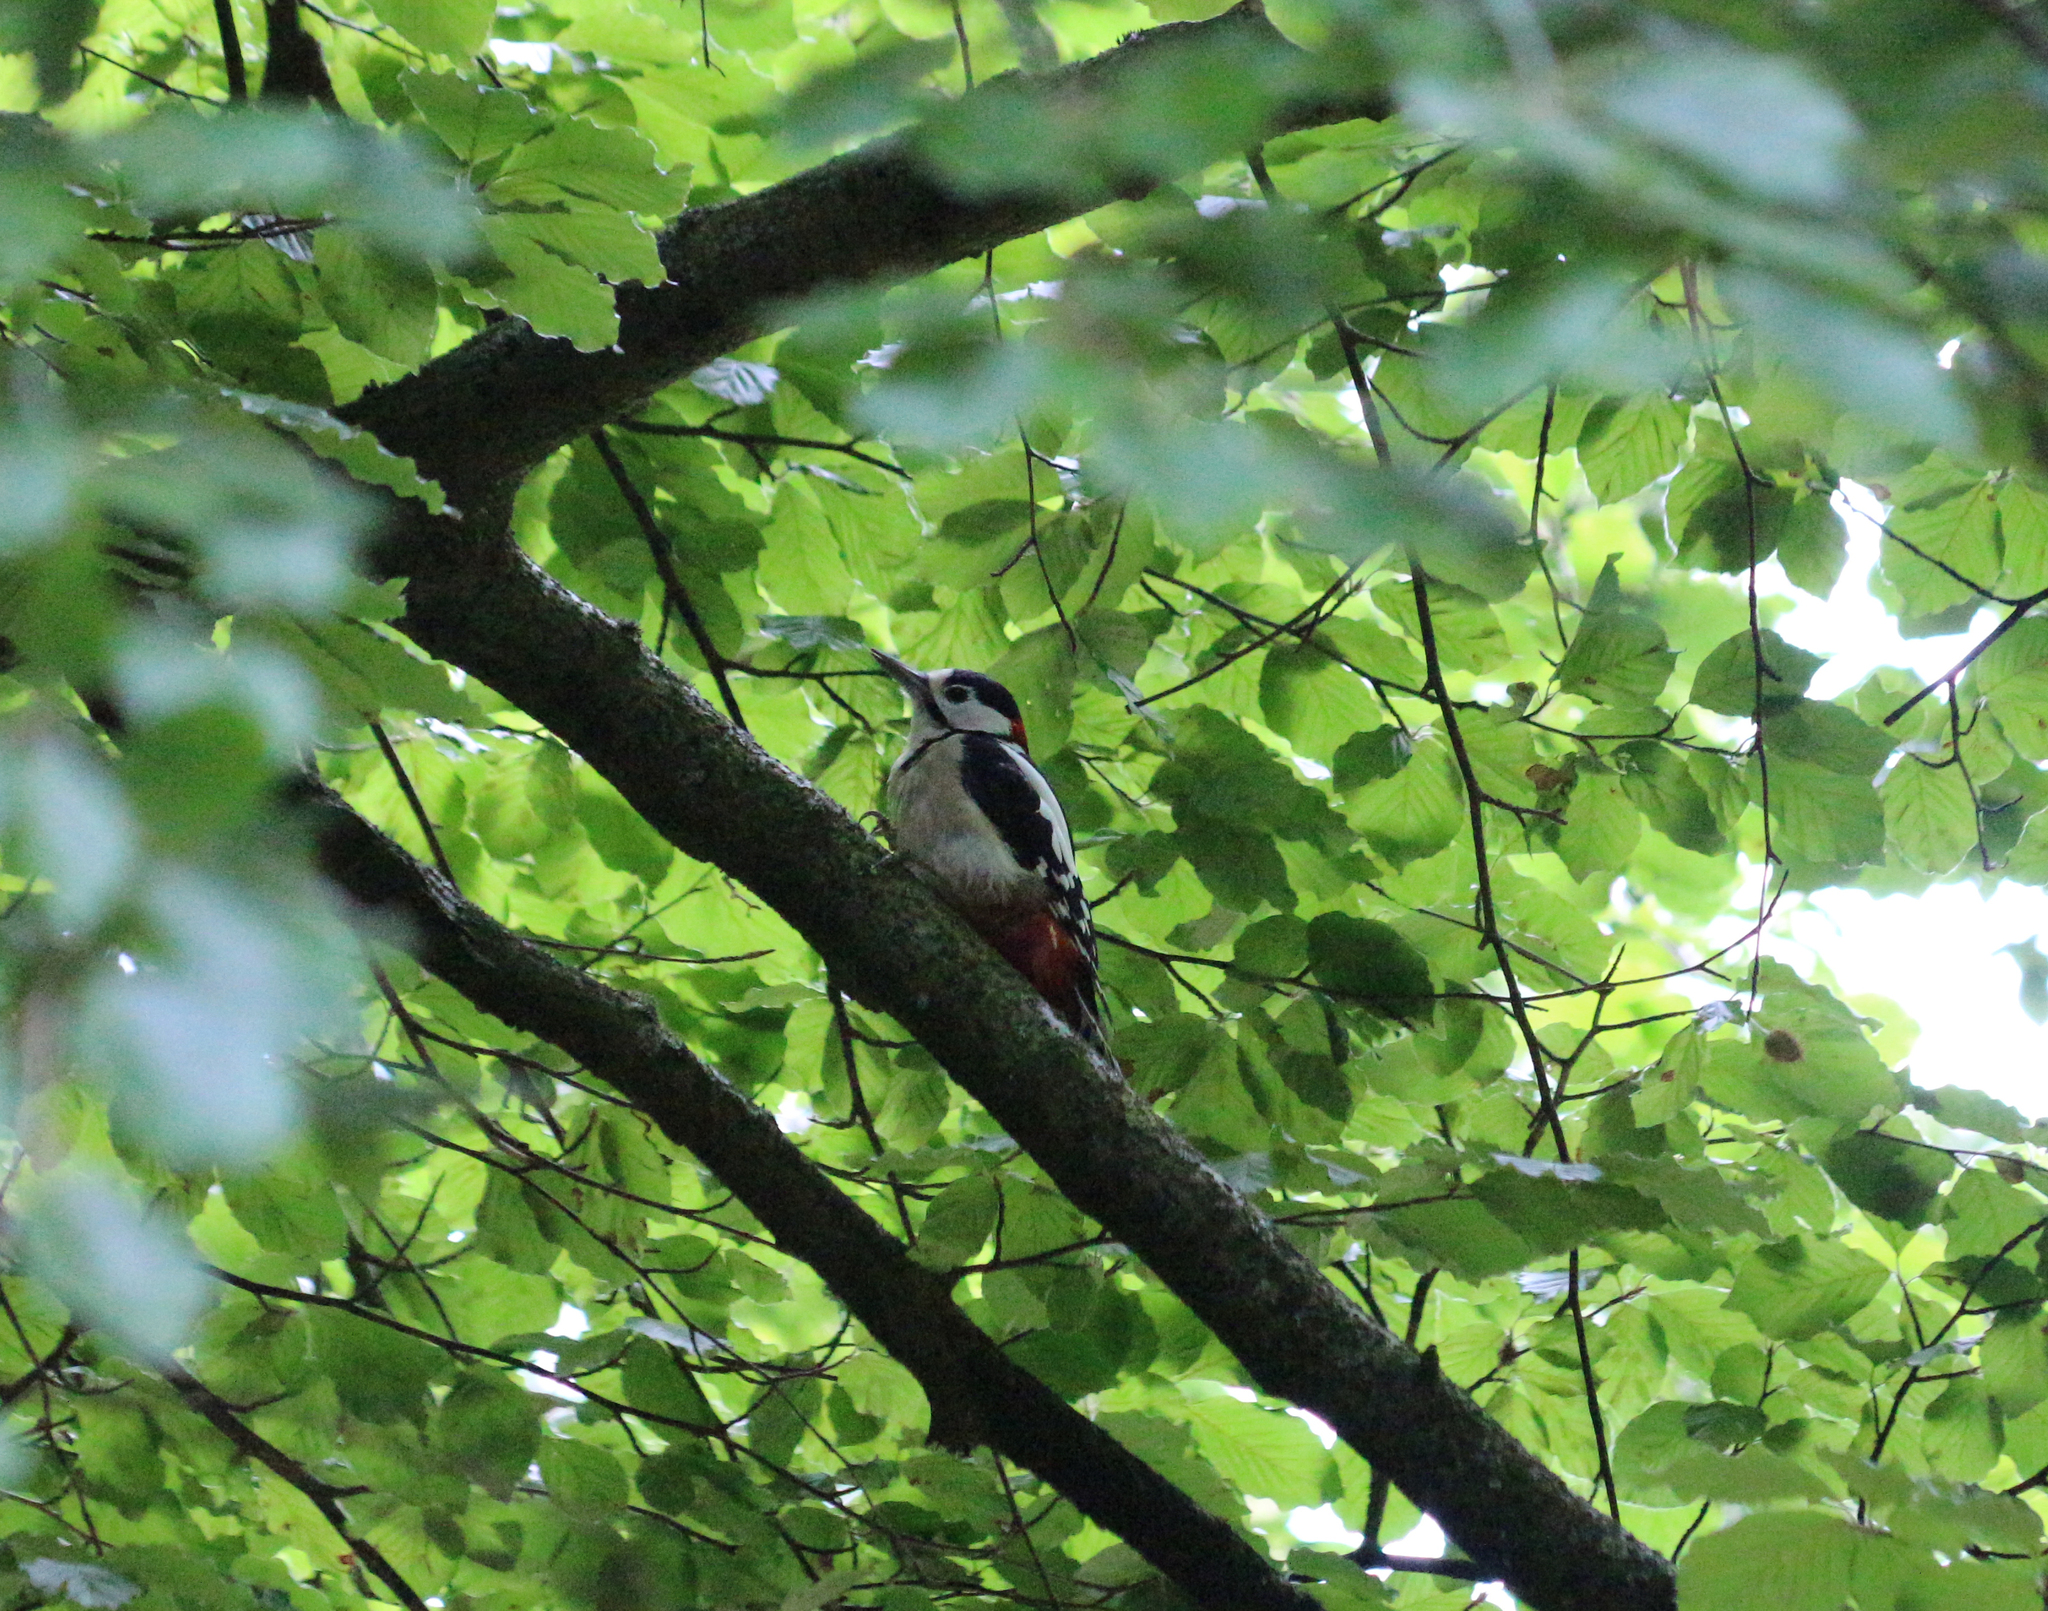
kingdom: Animalia
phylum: Chordata
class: Aves
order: Piciformes
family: Picidae
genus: Dendrocopos
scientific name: Dendrocopos major
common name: Great spotted woodpecker
